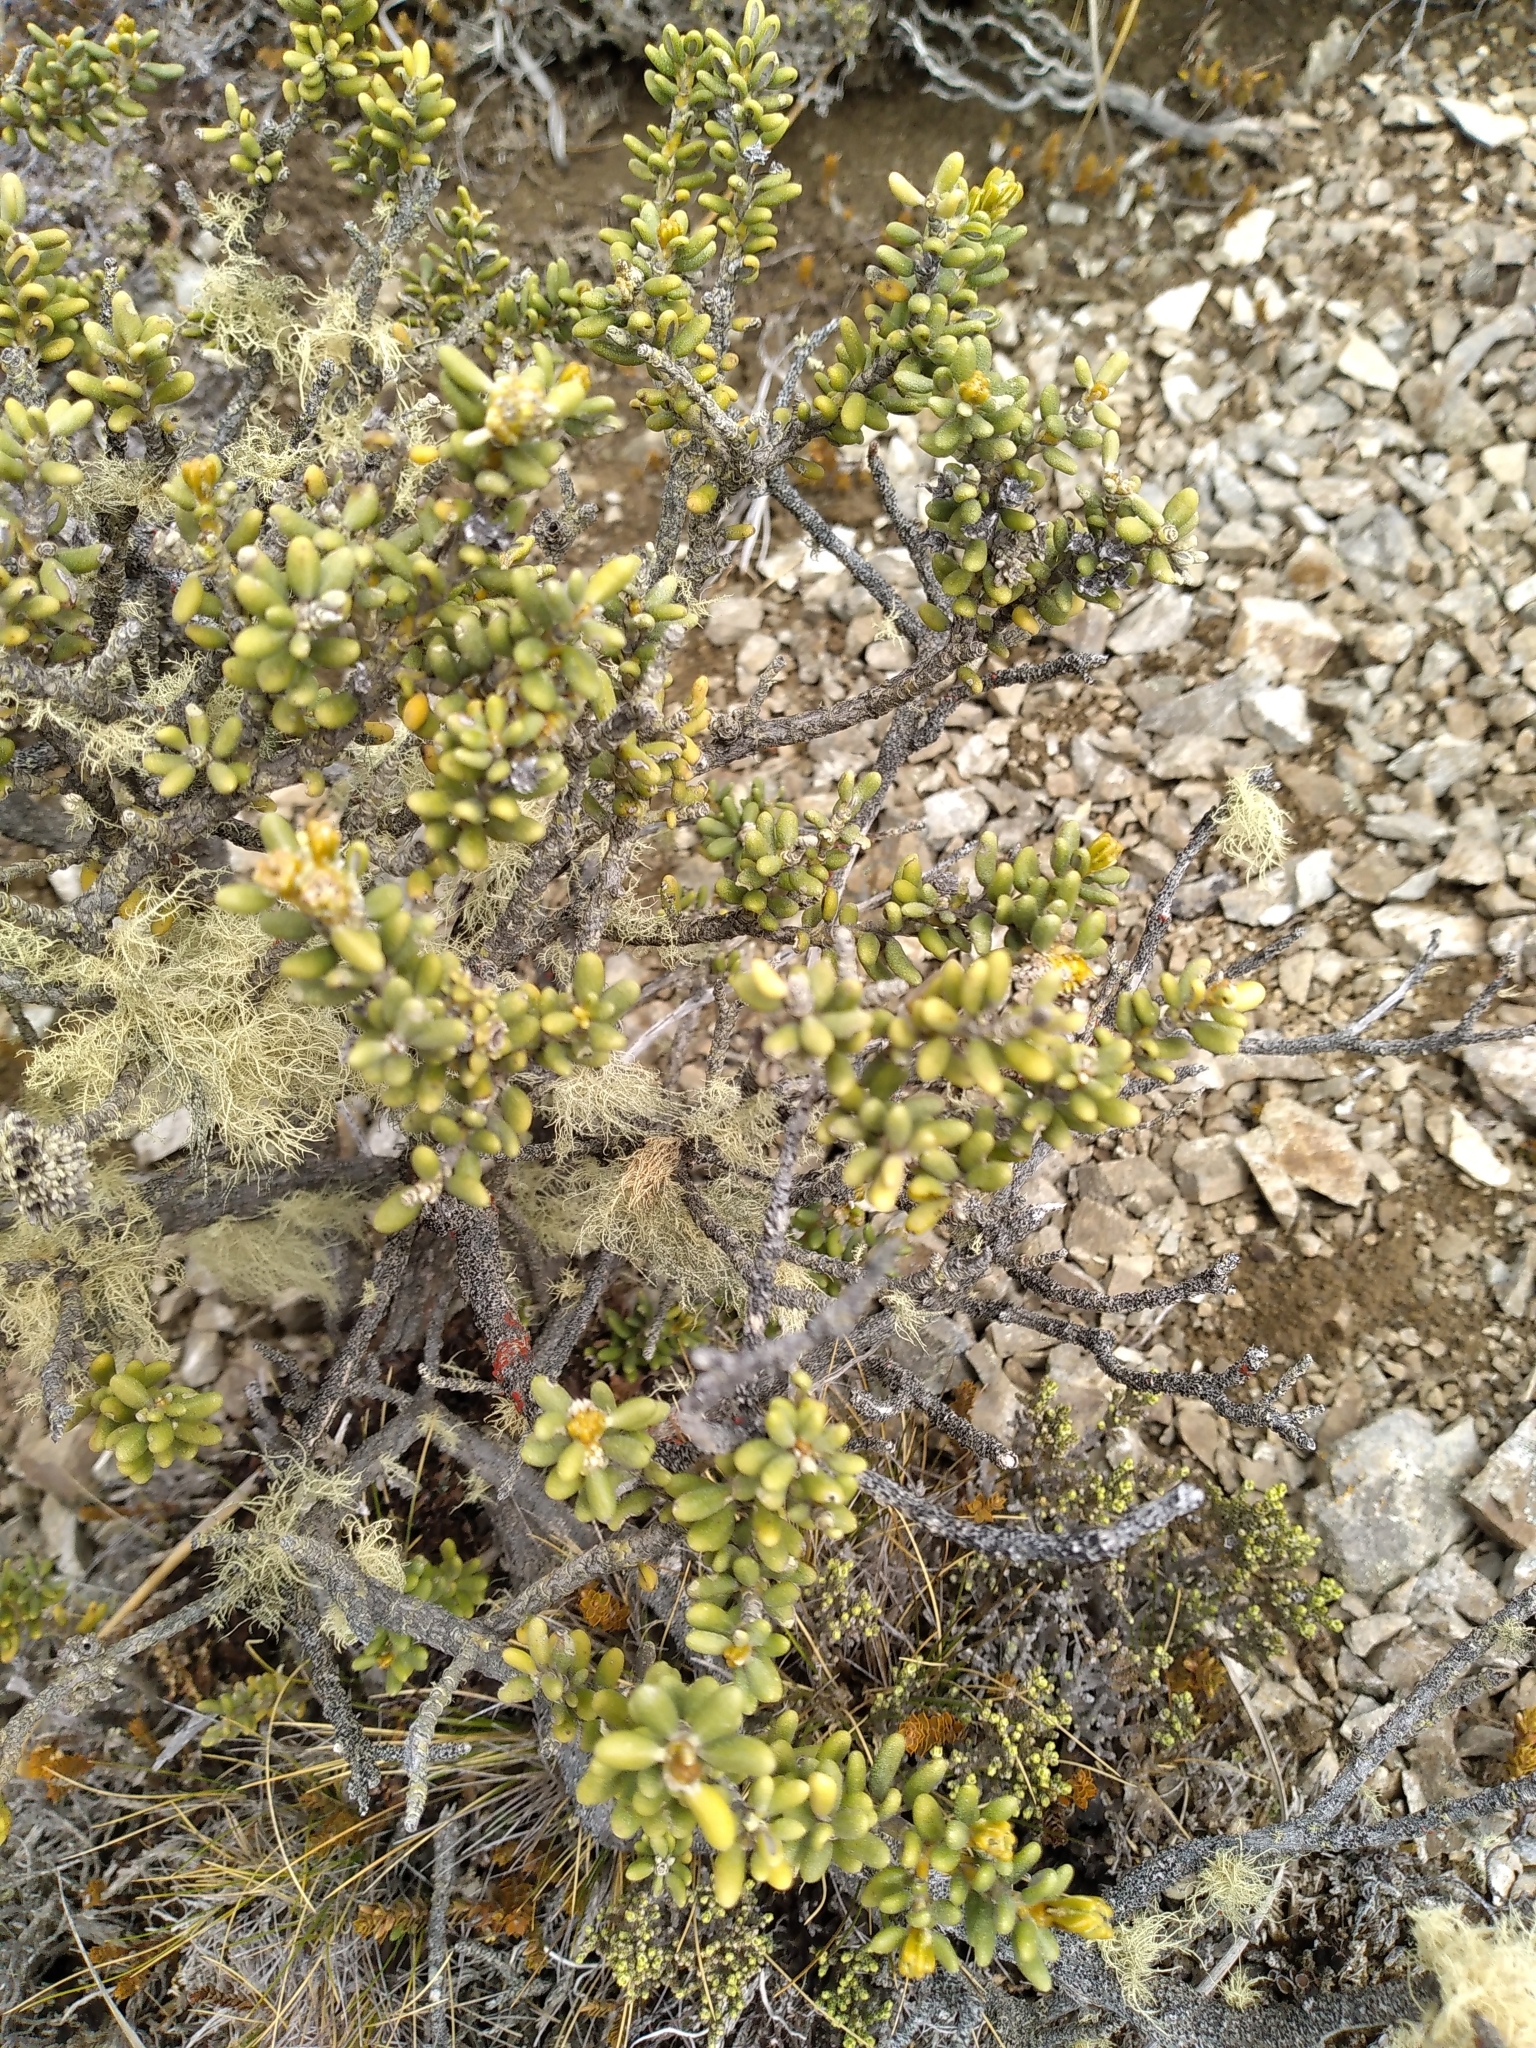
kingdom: Plantae
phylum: Tracheophyta
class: Magnoliopsida
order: Asterales
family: Asteraceae
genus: Olearia
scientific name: Olearia cymbifolia
